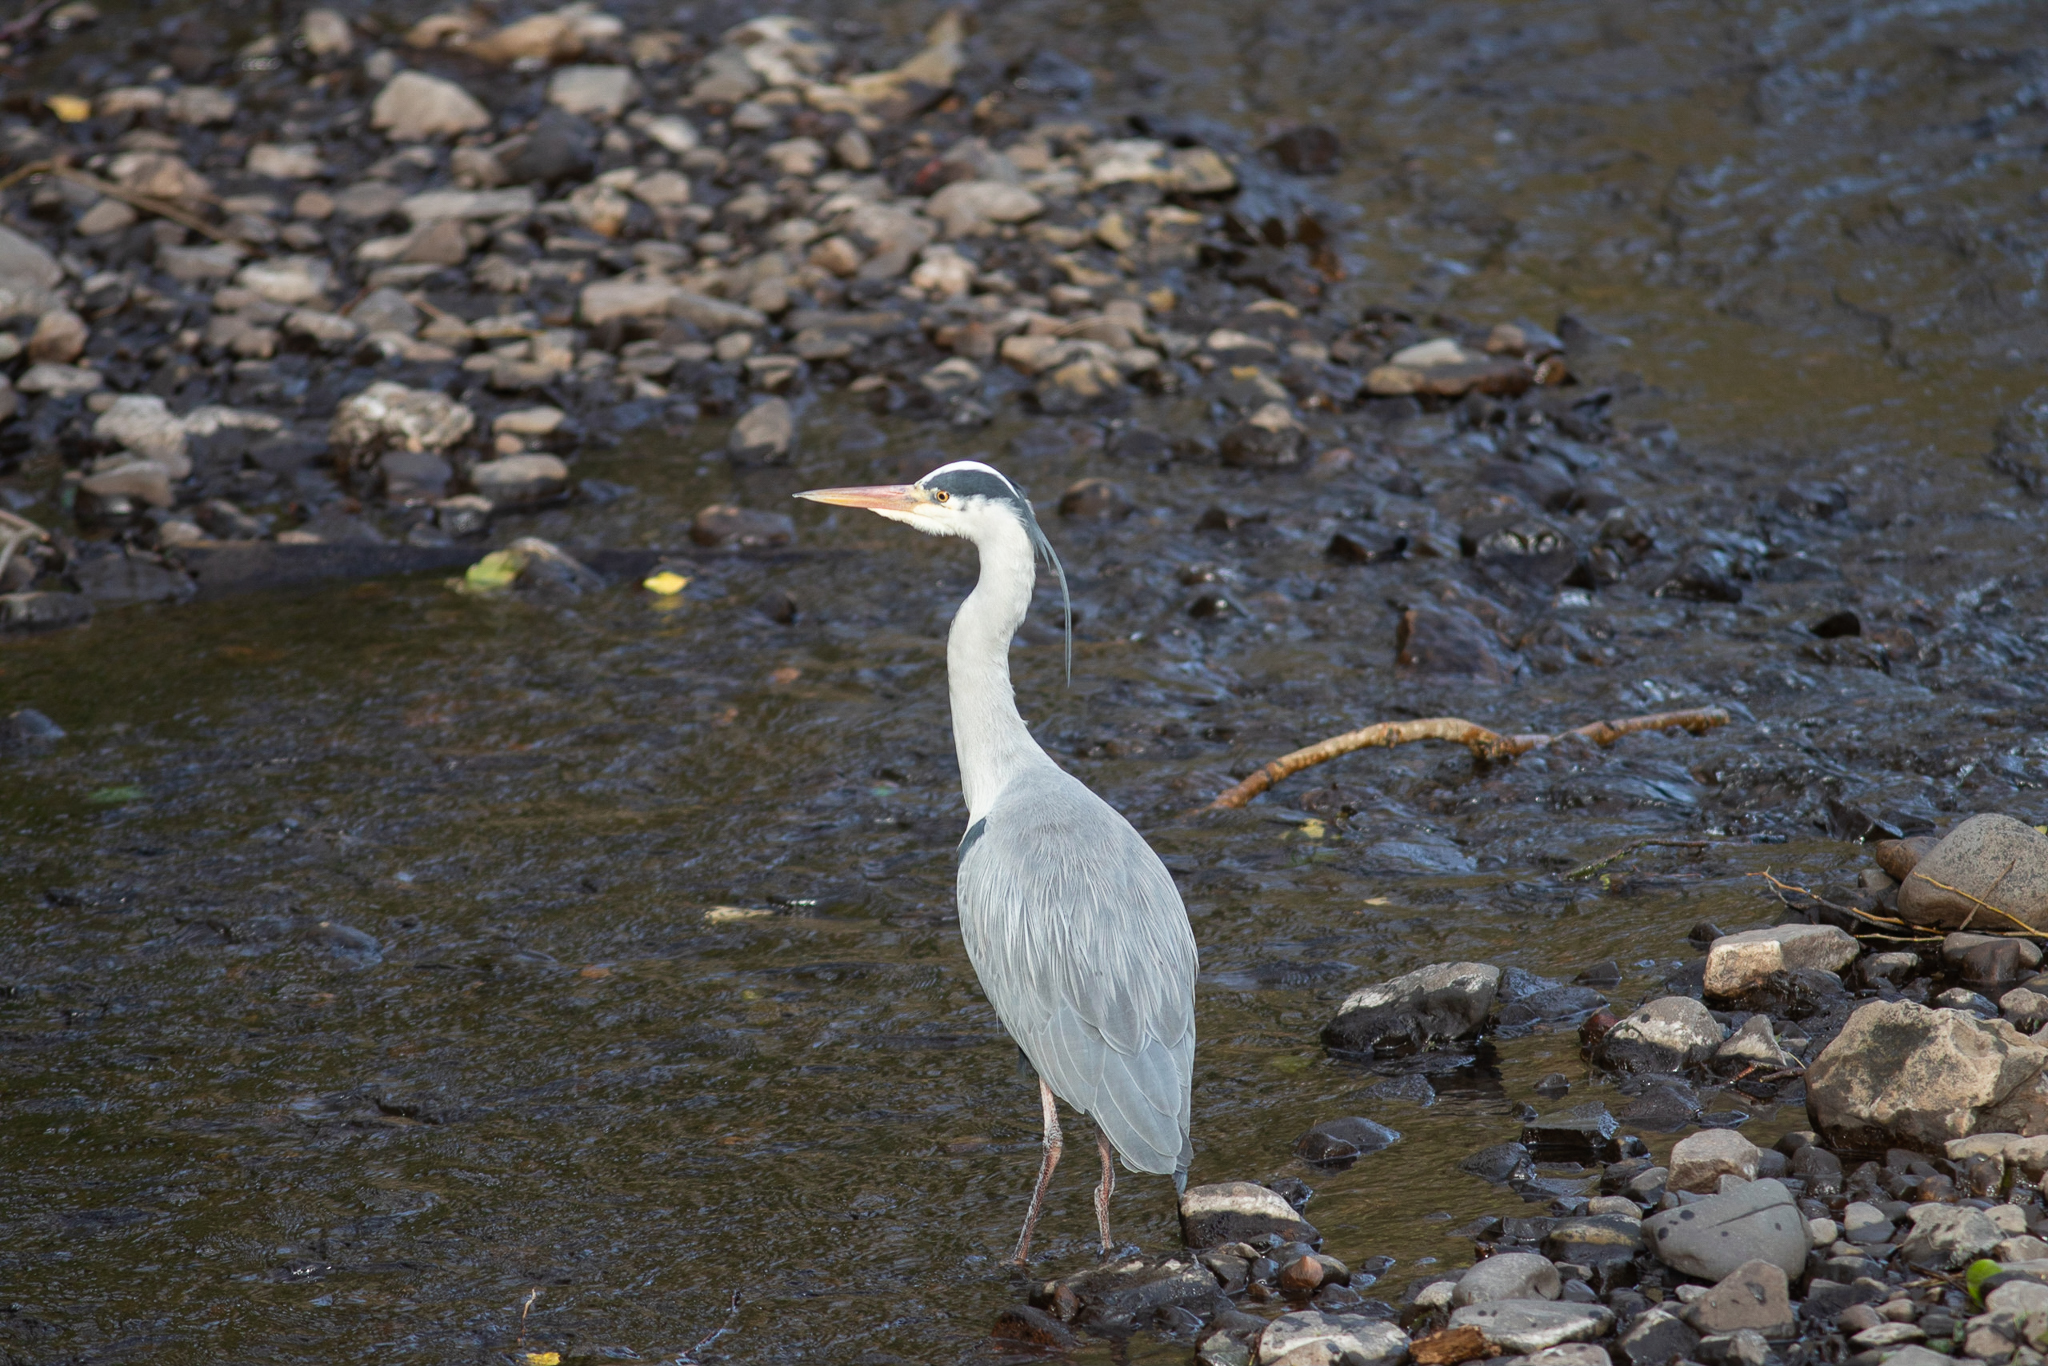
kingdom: Animalia
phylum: Chordata
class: Aves
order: Pelecaniformes
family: Ardeidae
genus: Ardea
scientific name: Ardea cinerea
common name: Grey heron
